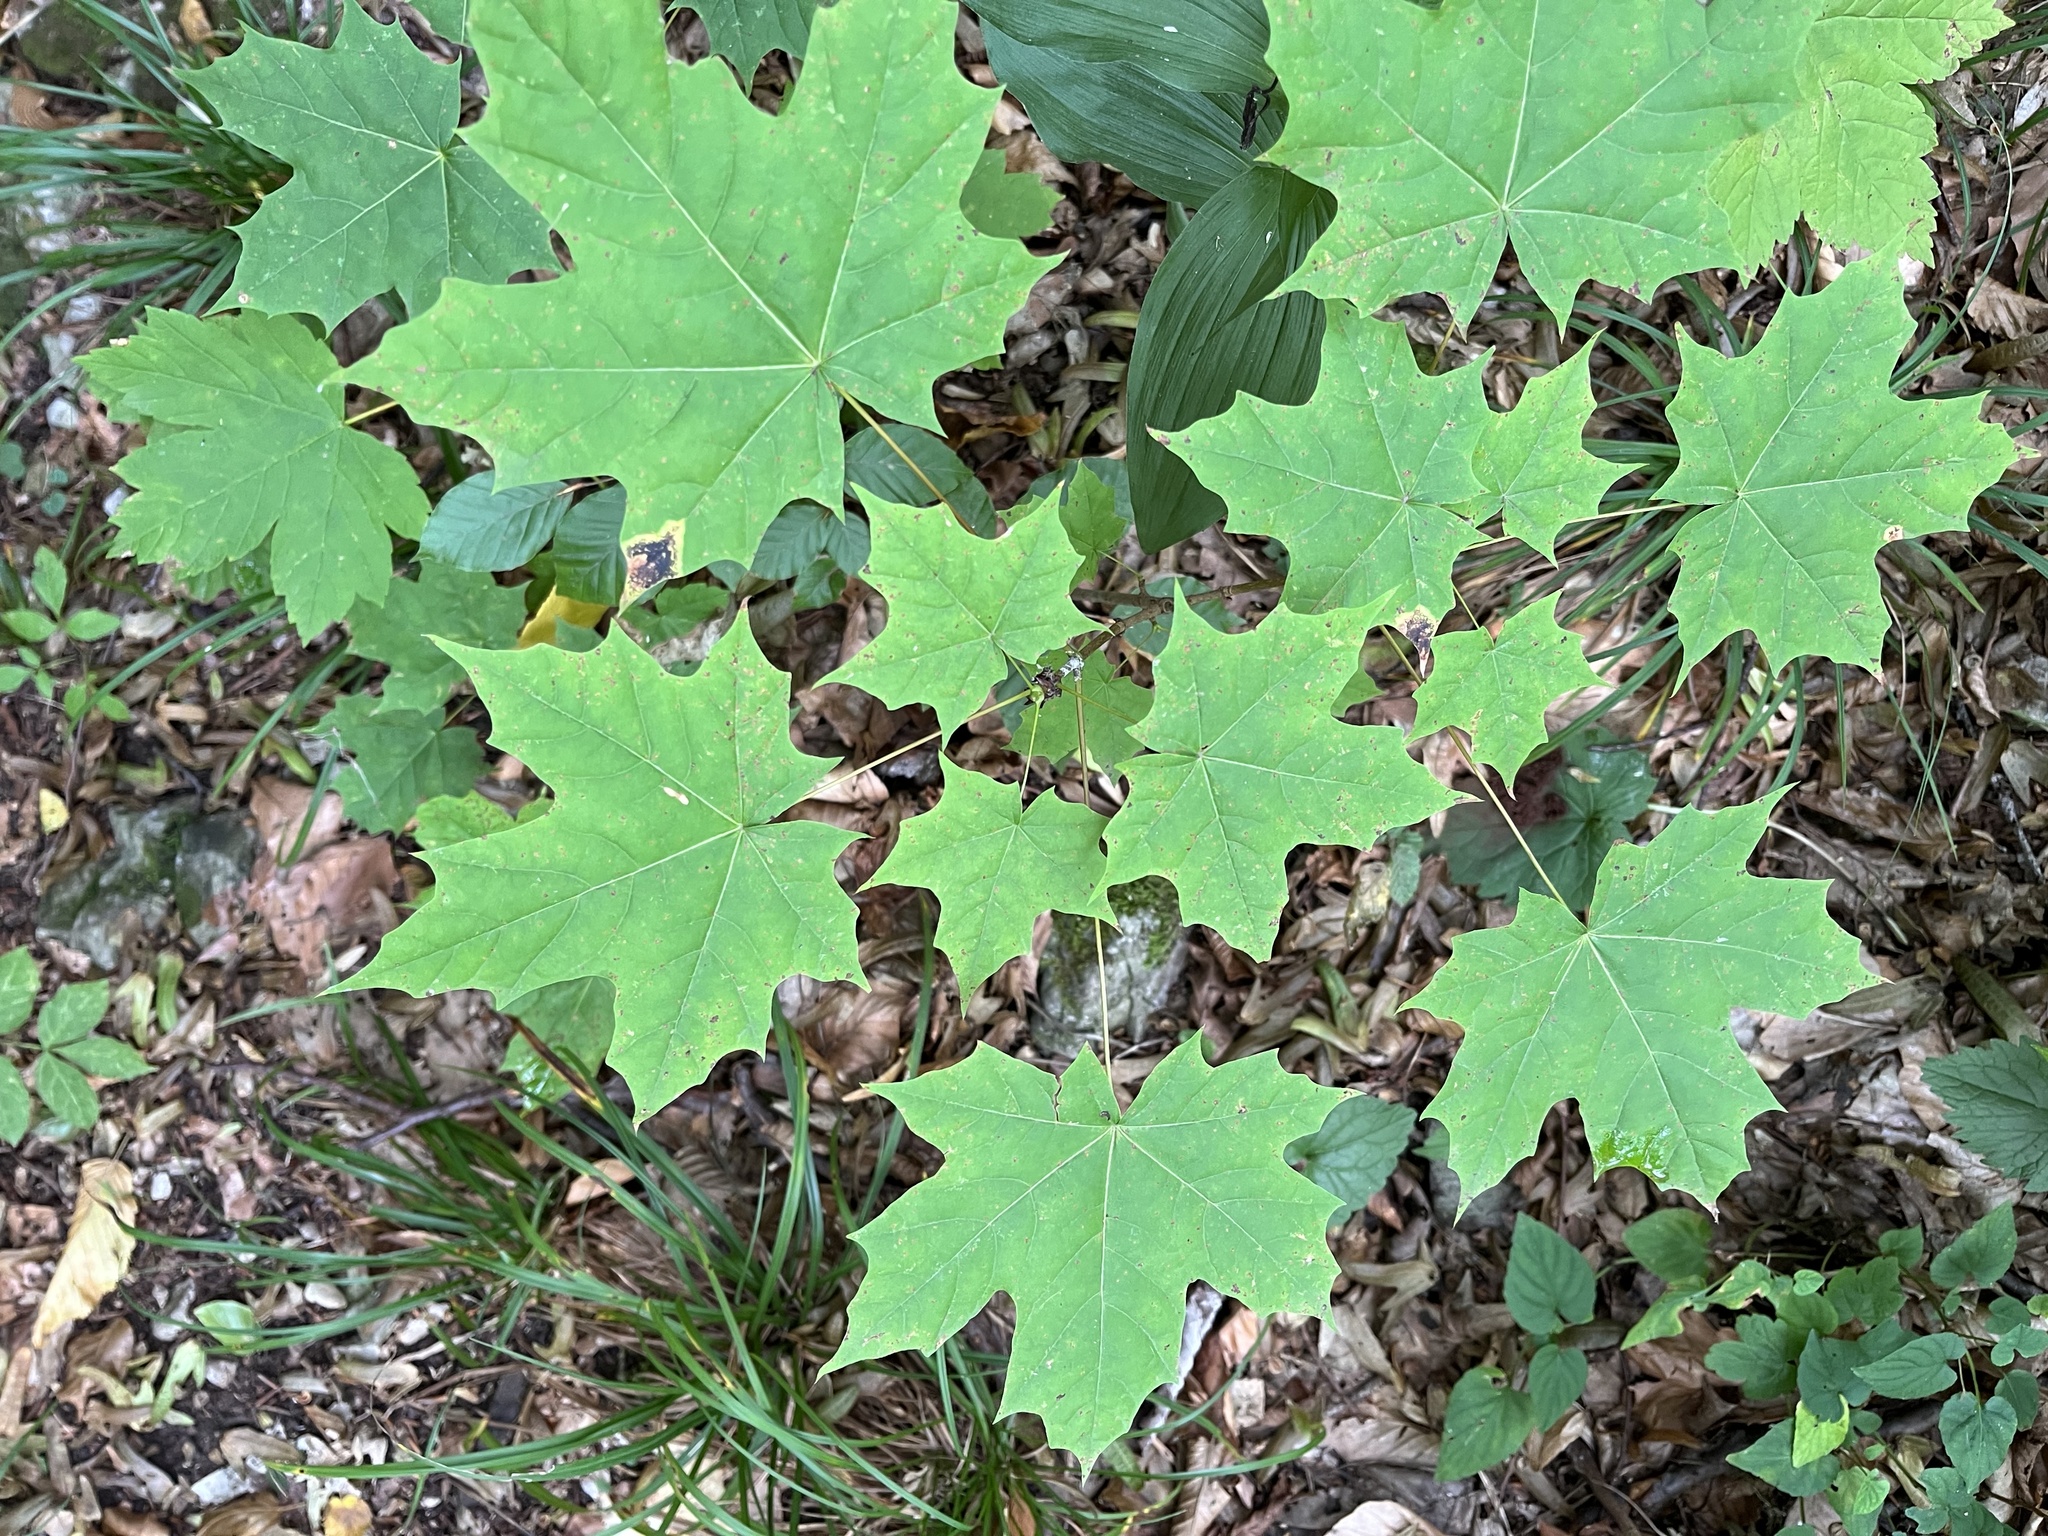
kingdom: Plantae
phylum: Tracheophyta
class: Magnoliopsida
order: Sapindales
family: Sapindaceae
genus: Acer
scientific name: Acer platanoides
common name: Norway maple
